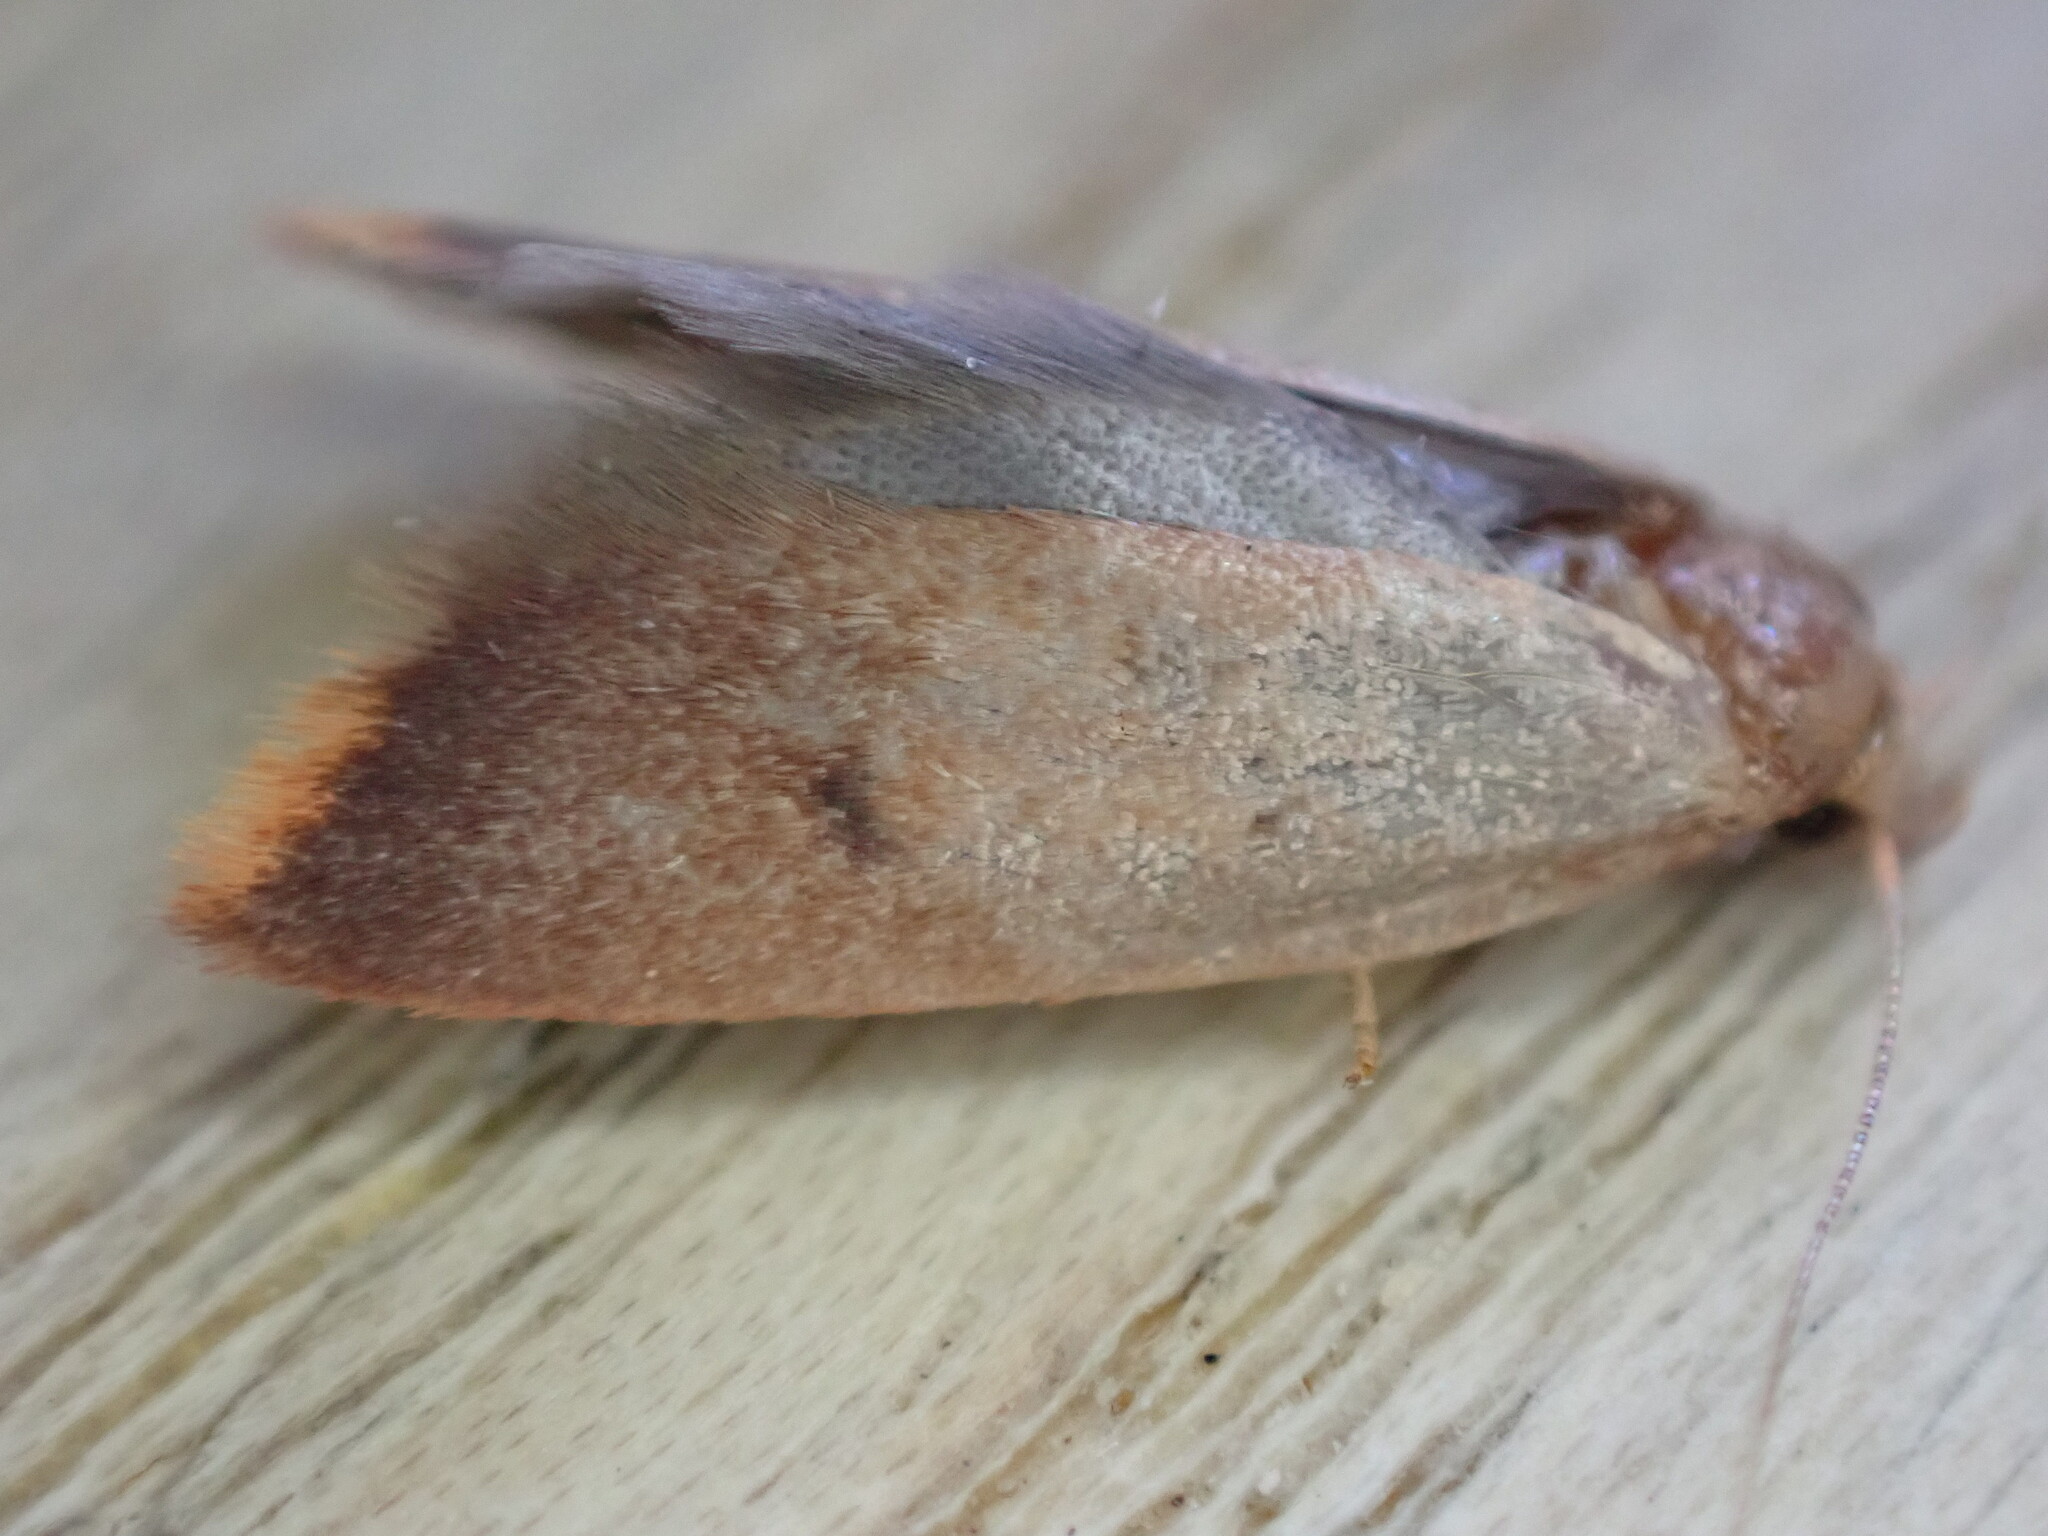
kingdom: Animalia
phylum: Arthropoda
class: Insecta
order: Lepidoptera
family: Oecophoridae
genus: Tachystola
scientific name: Tachystola acroxantha
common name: Ruddy streak
